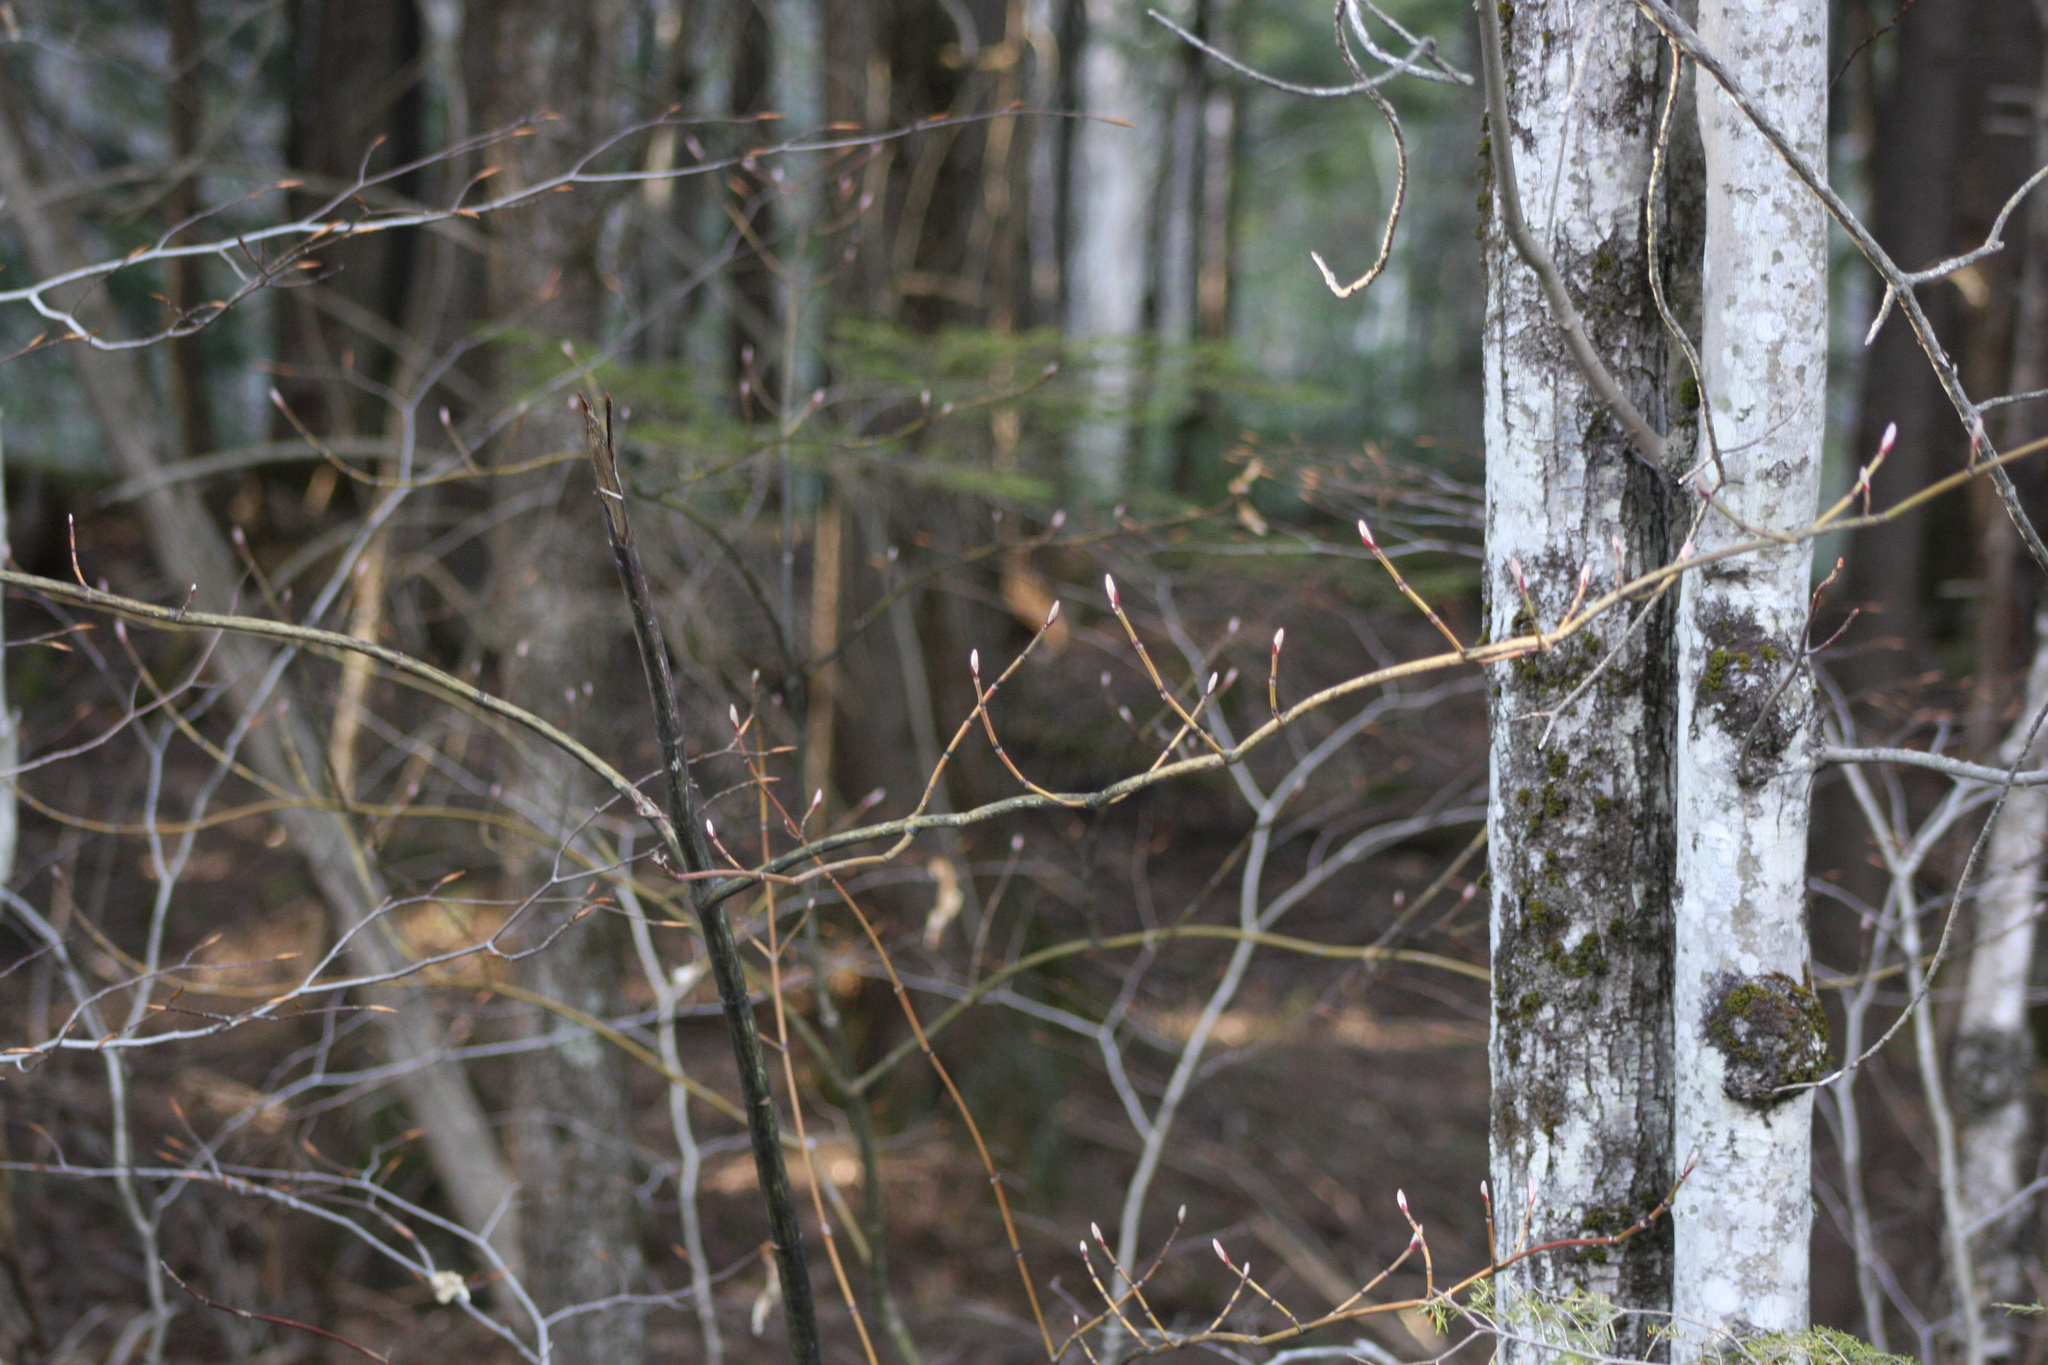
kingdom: Plantae
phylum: Tracheophyta
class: Magnoliopsida
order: Sapindales
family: Sapindaceae
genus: Acer
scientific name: Acer pensylvanicum
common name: Moosewood
